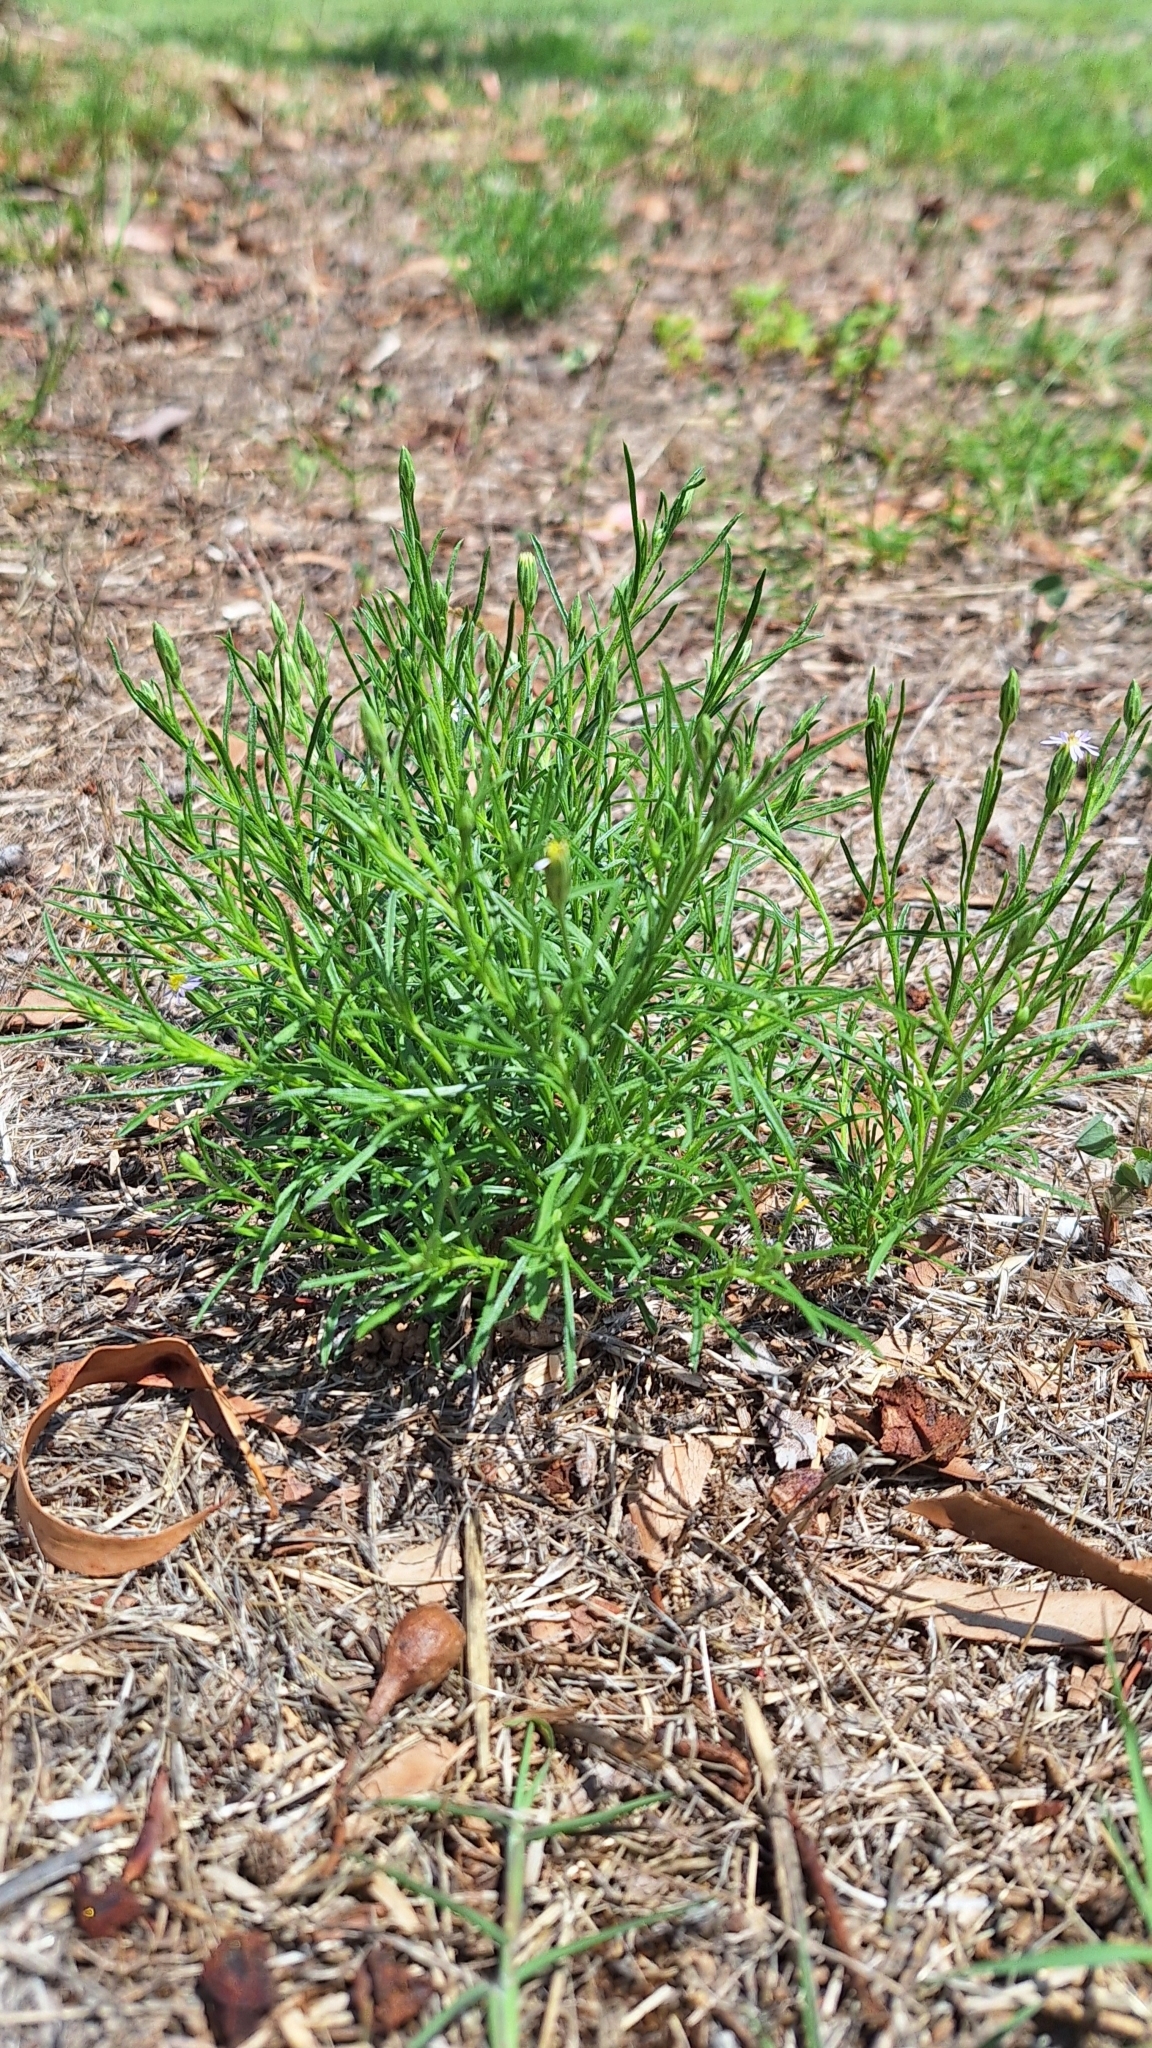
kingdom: Plantae
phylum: Tracheophyta
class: Magnoliopsida
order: Asterales
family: Asteraceae
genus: Vittadinia
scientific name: Vittadinia blackii
